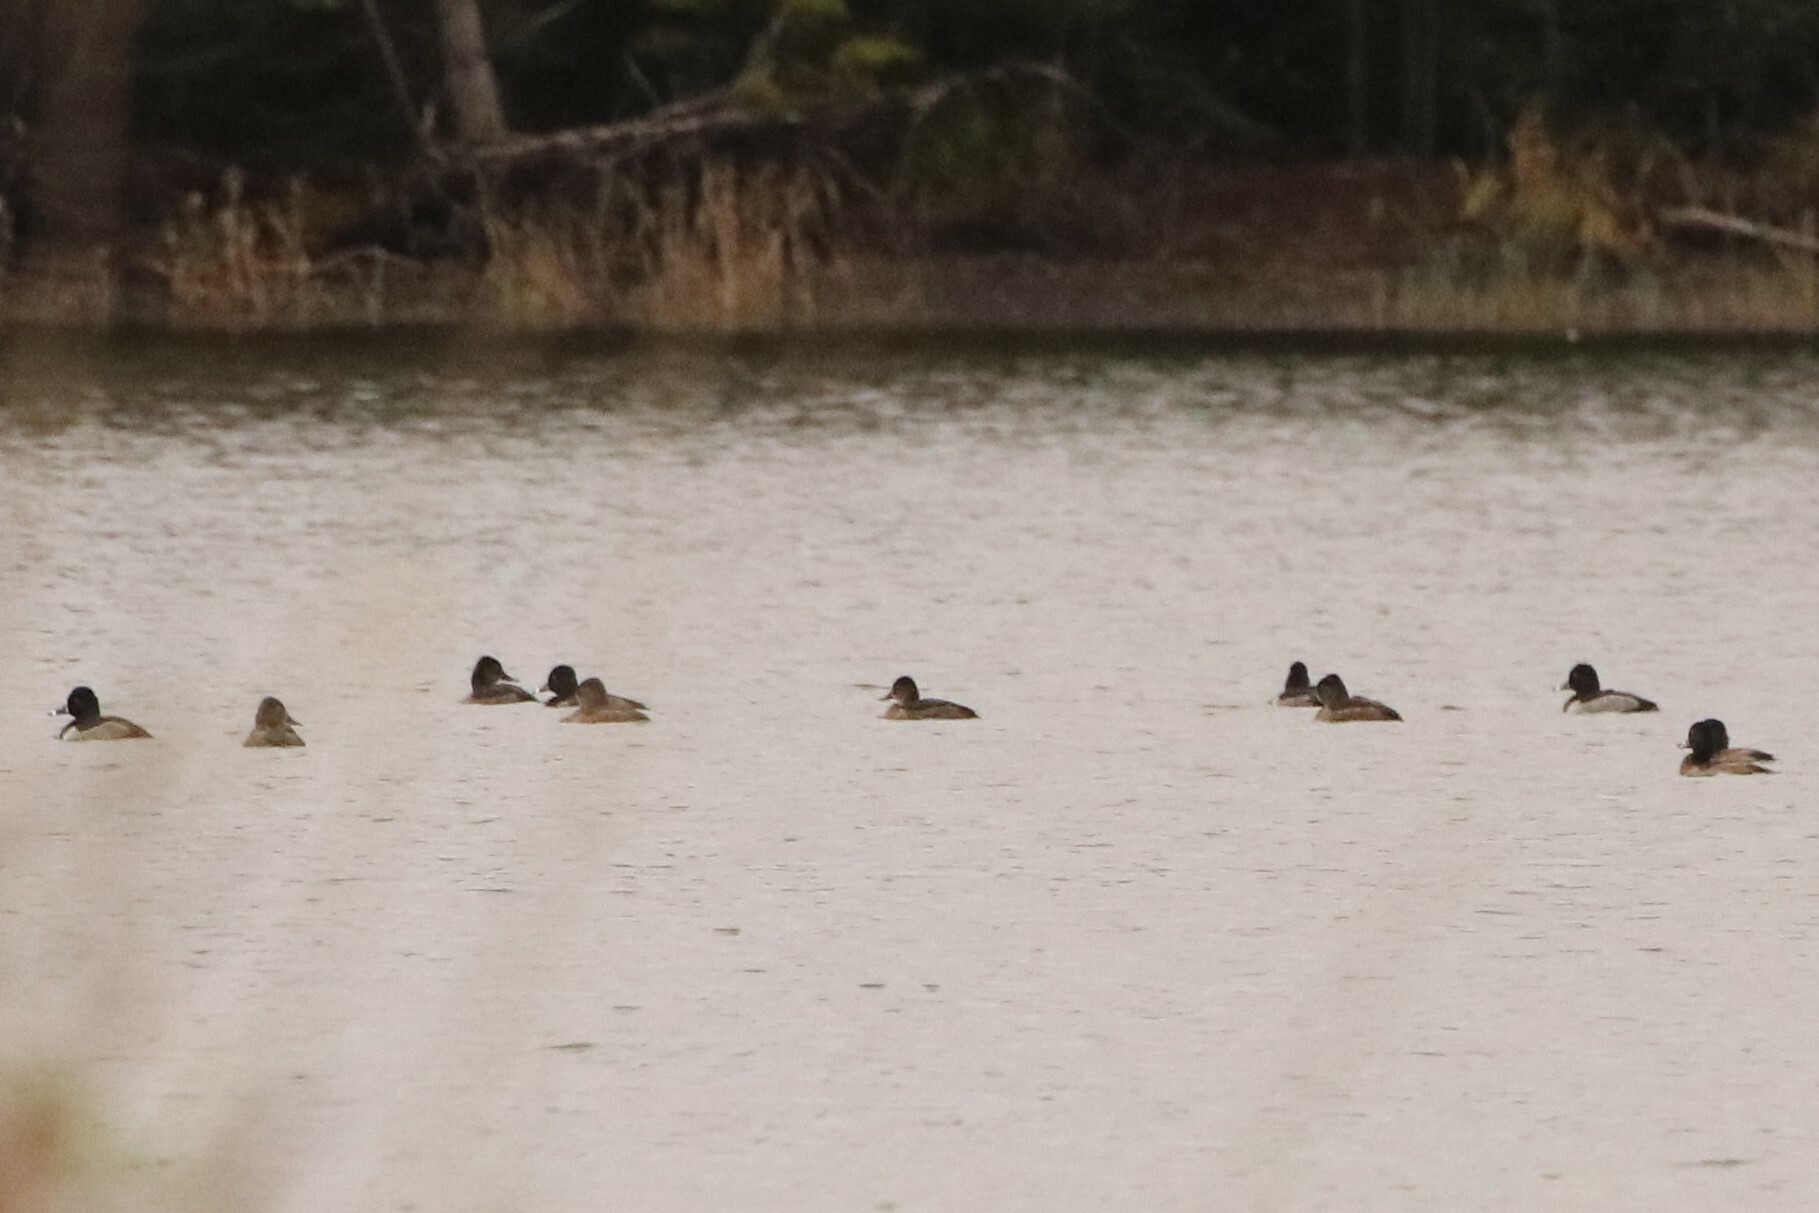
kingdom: Animalia
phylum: Chordata
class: Aves
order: Anseriformes
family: Anatidae
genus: Aythya
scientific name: Aythya collaris
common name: Ring-necked duck
